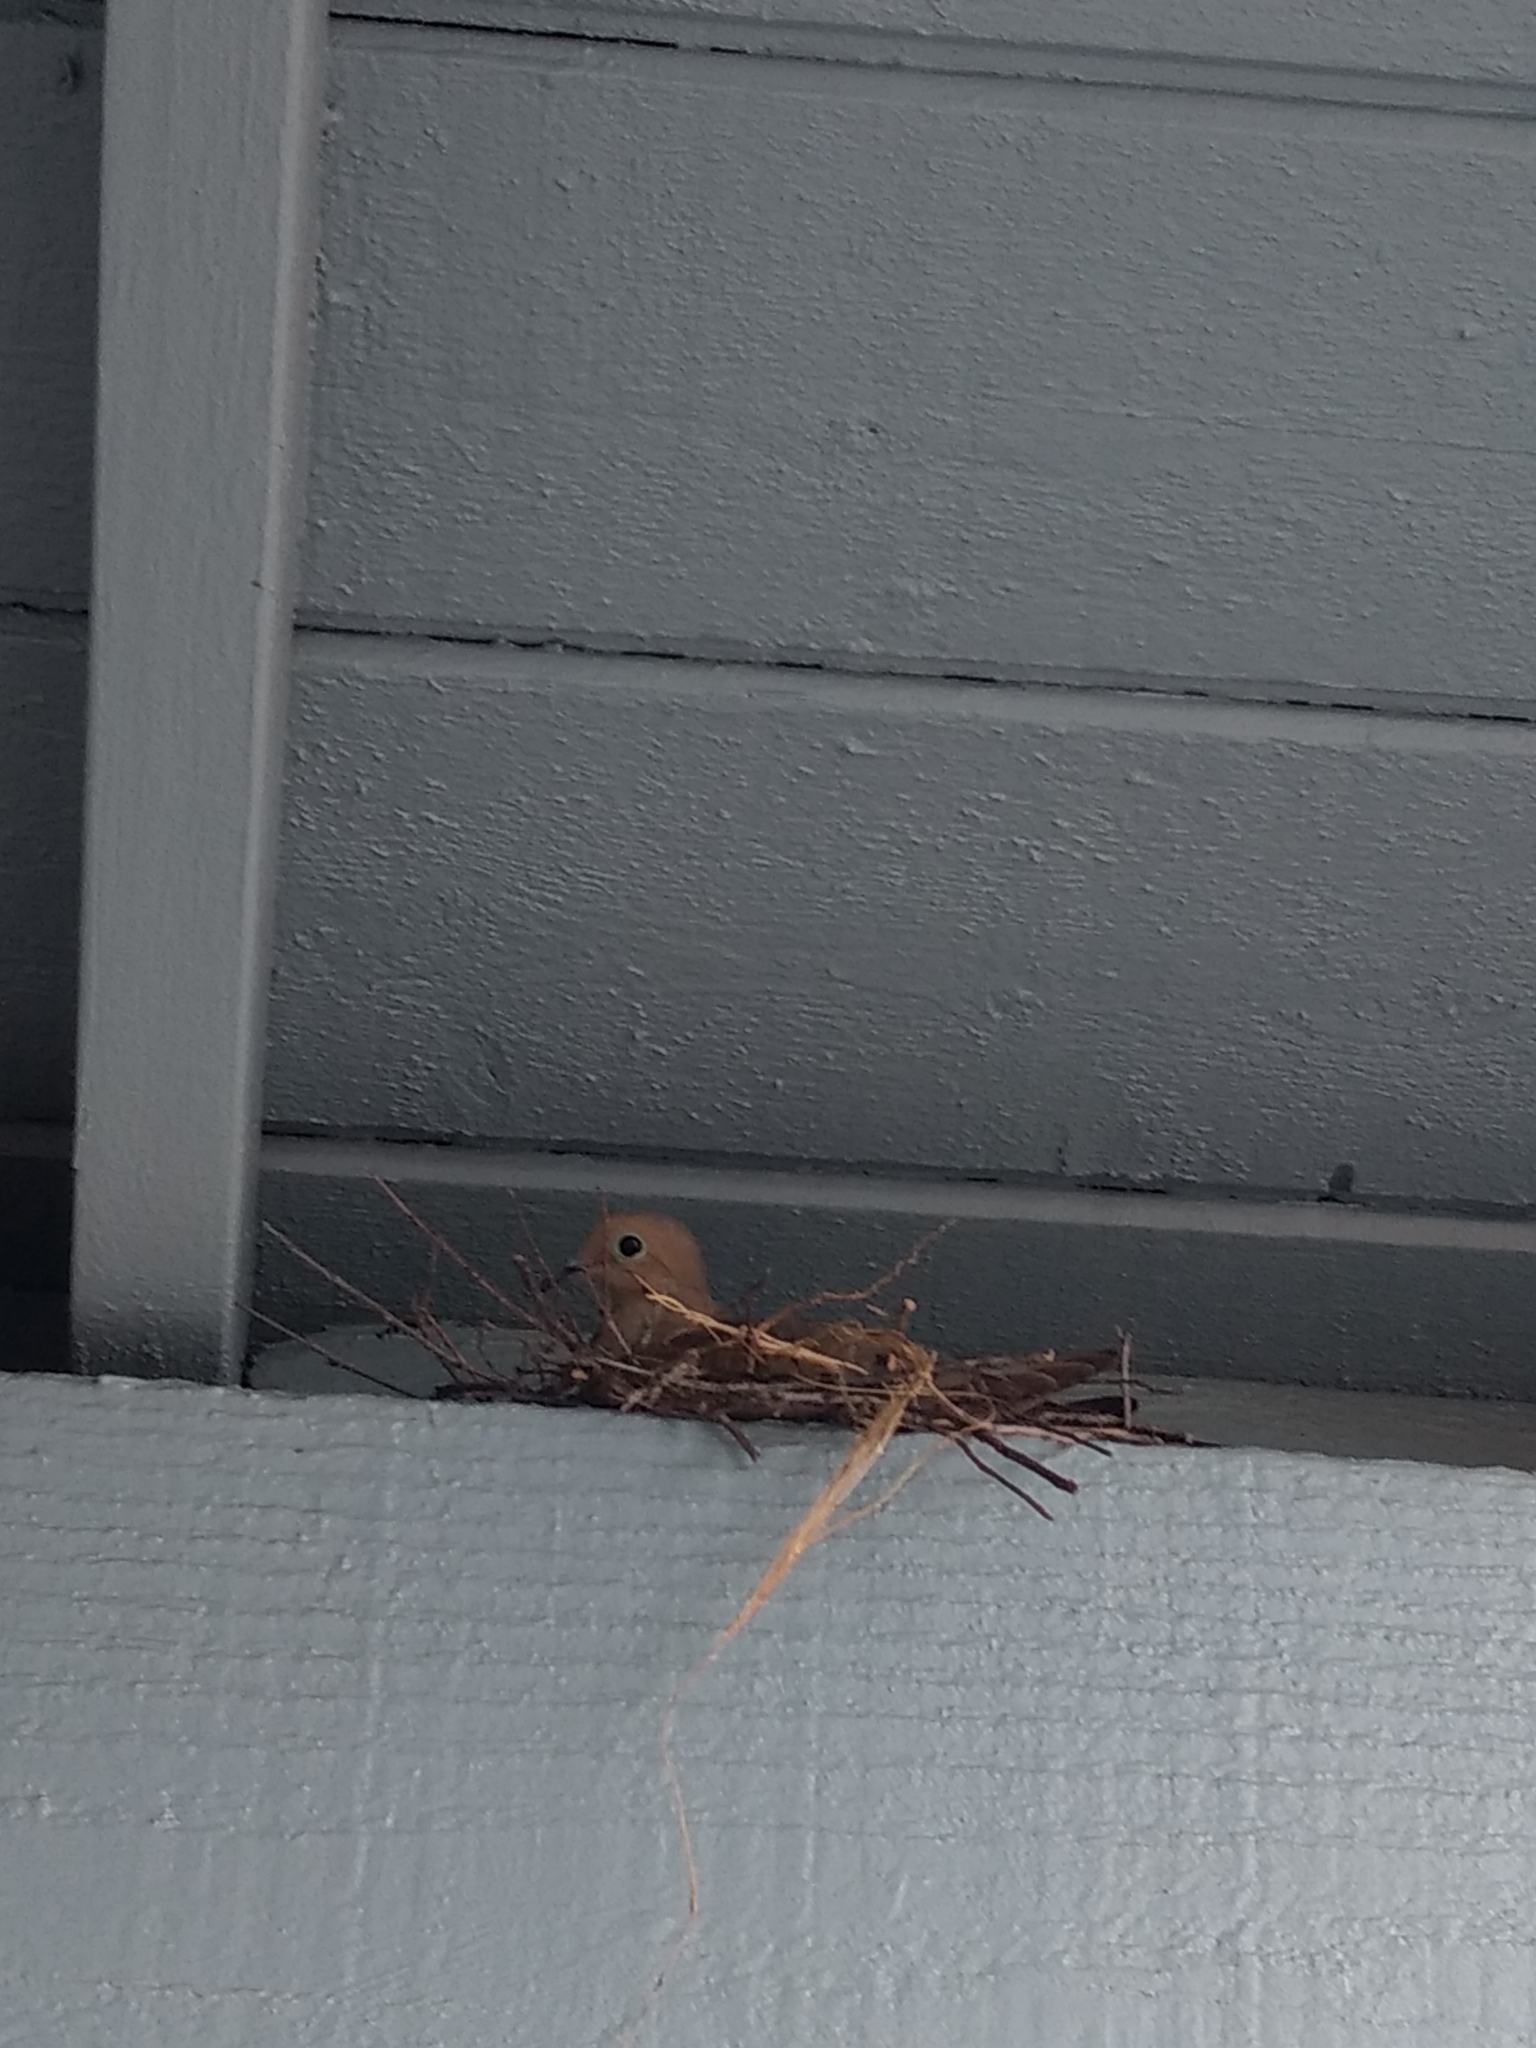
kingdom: Animalia
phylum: Chordata
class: Aves
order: Columbiformes
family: Columbidae
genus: Zenaida
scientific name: Zenaida macroura
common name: Mourning dove
